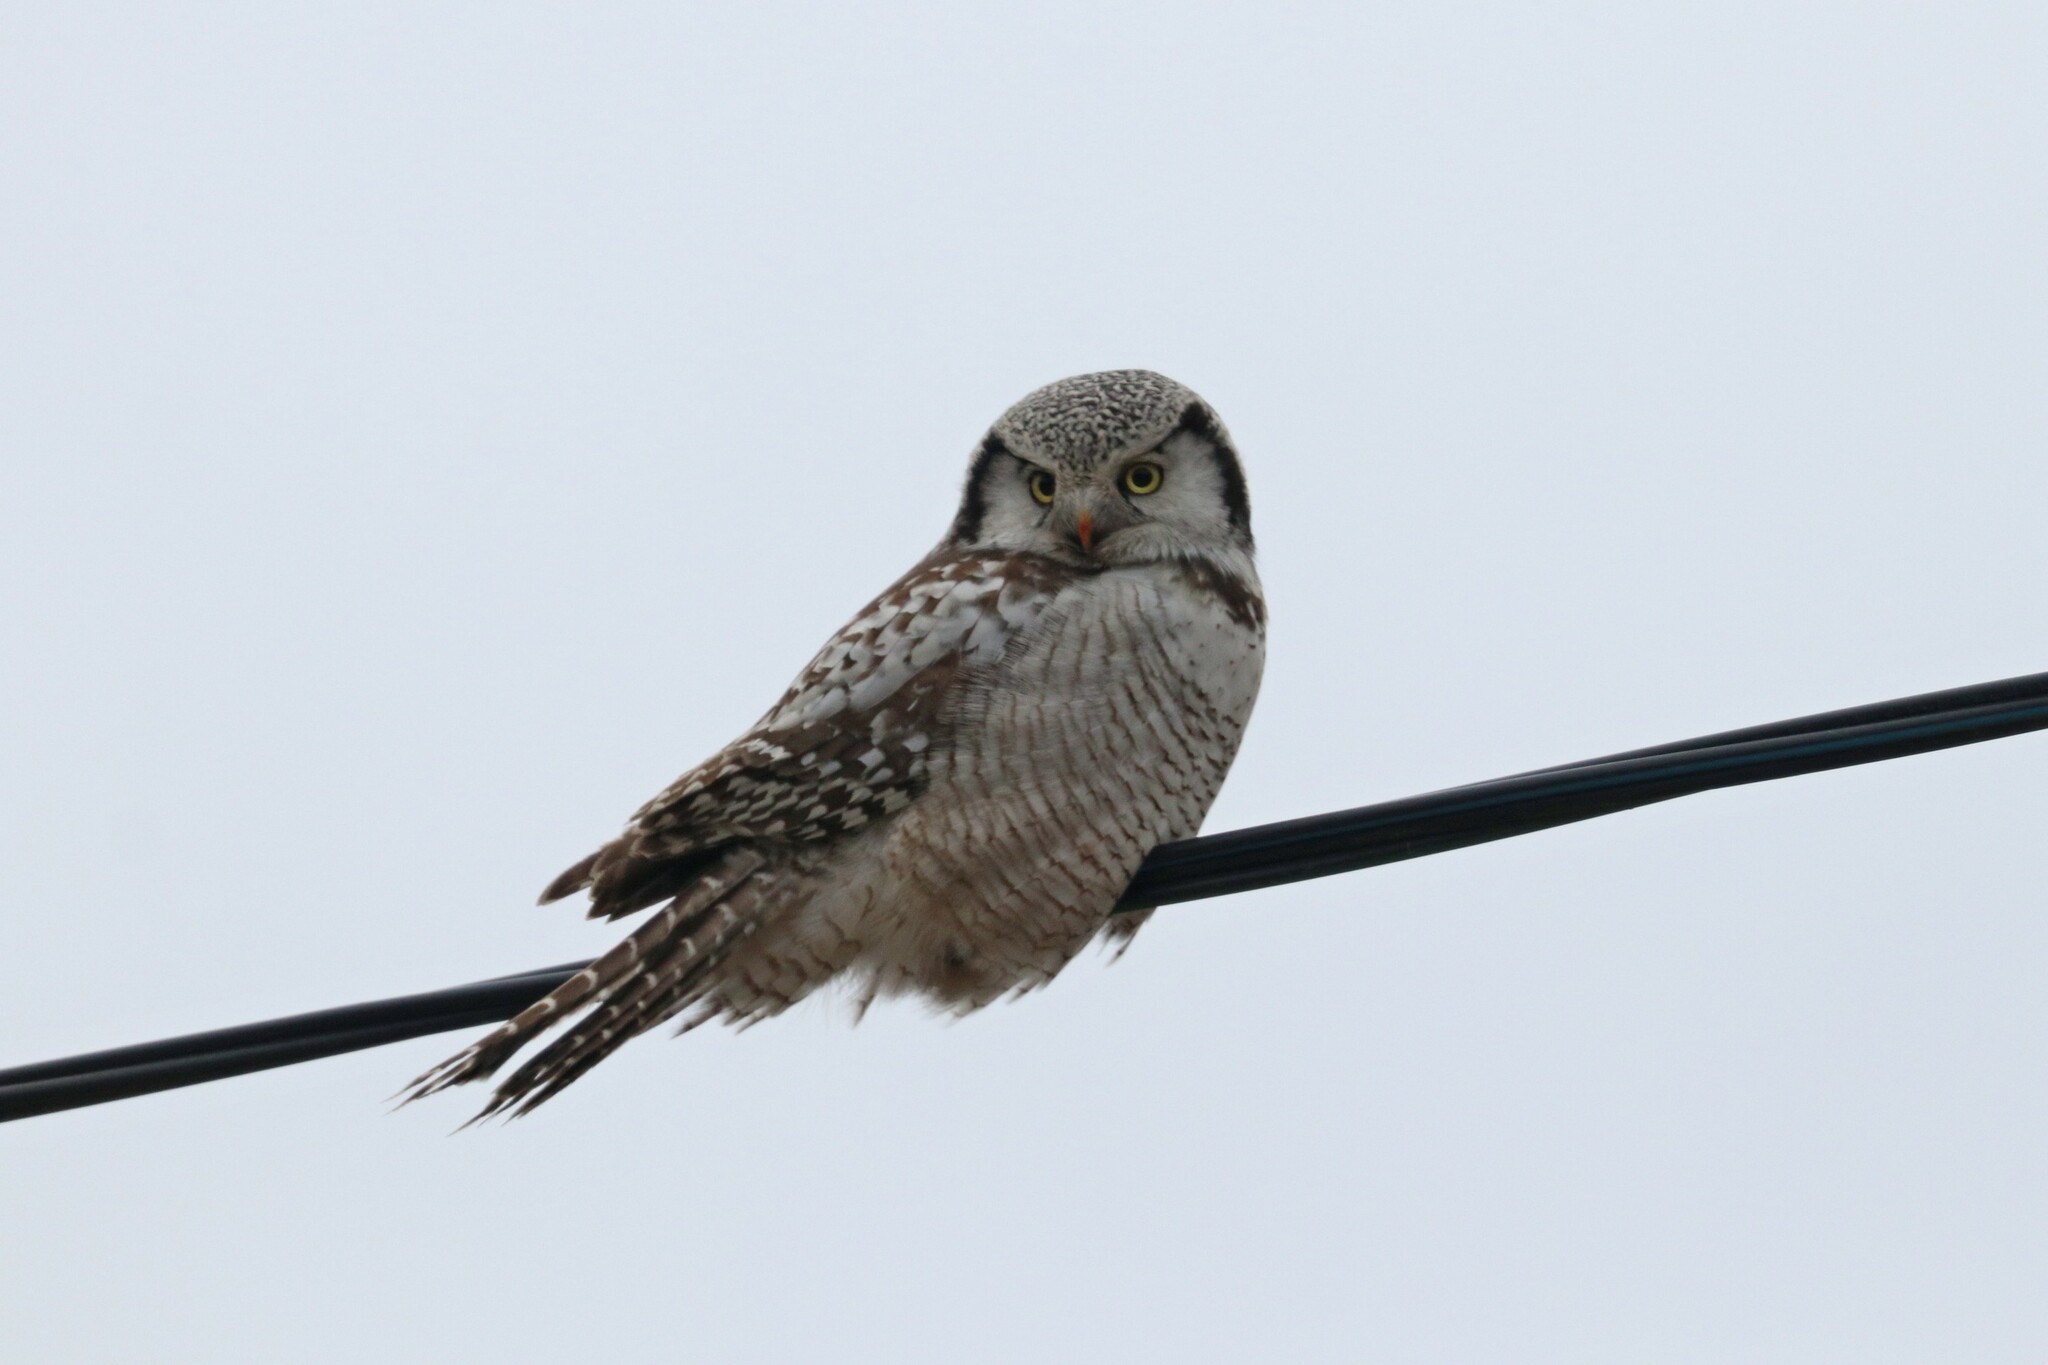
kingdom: Animalia
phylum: Chordata
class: Aves
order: Strigiformes
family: Strigidae
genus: Surnia
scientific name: Surnia ulula
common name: Northern hawk-owl
